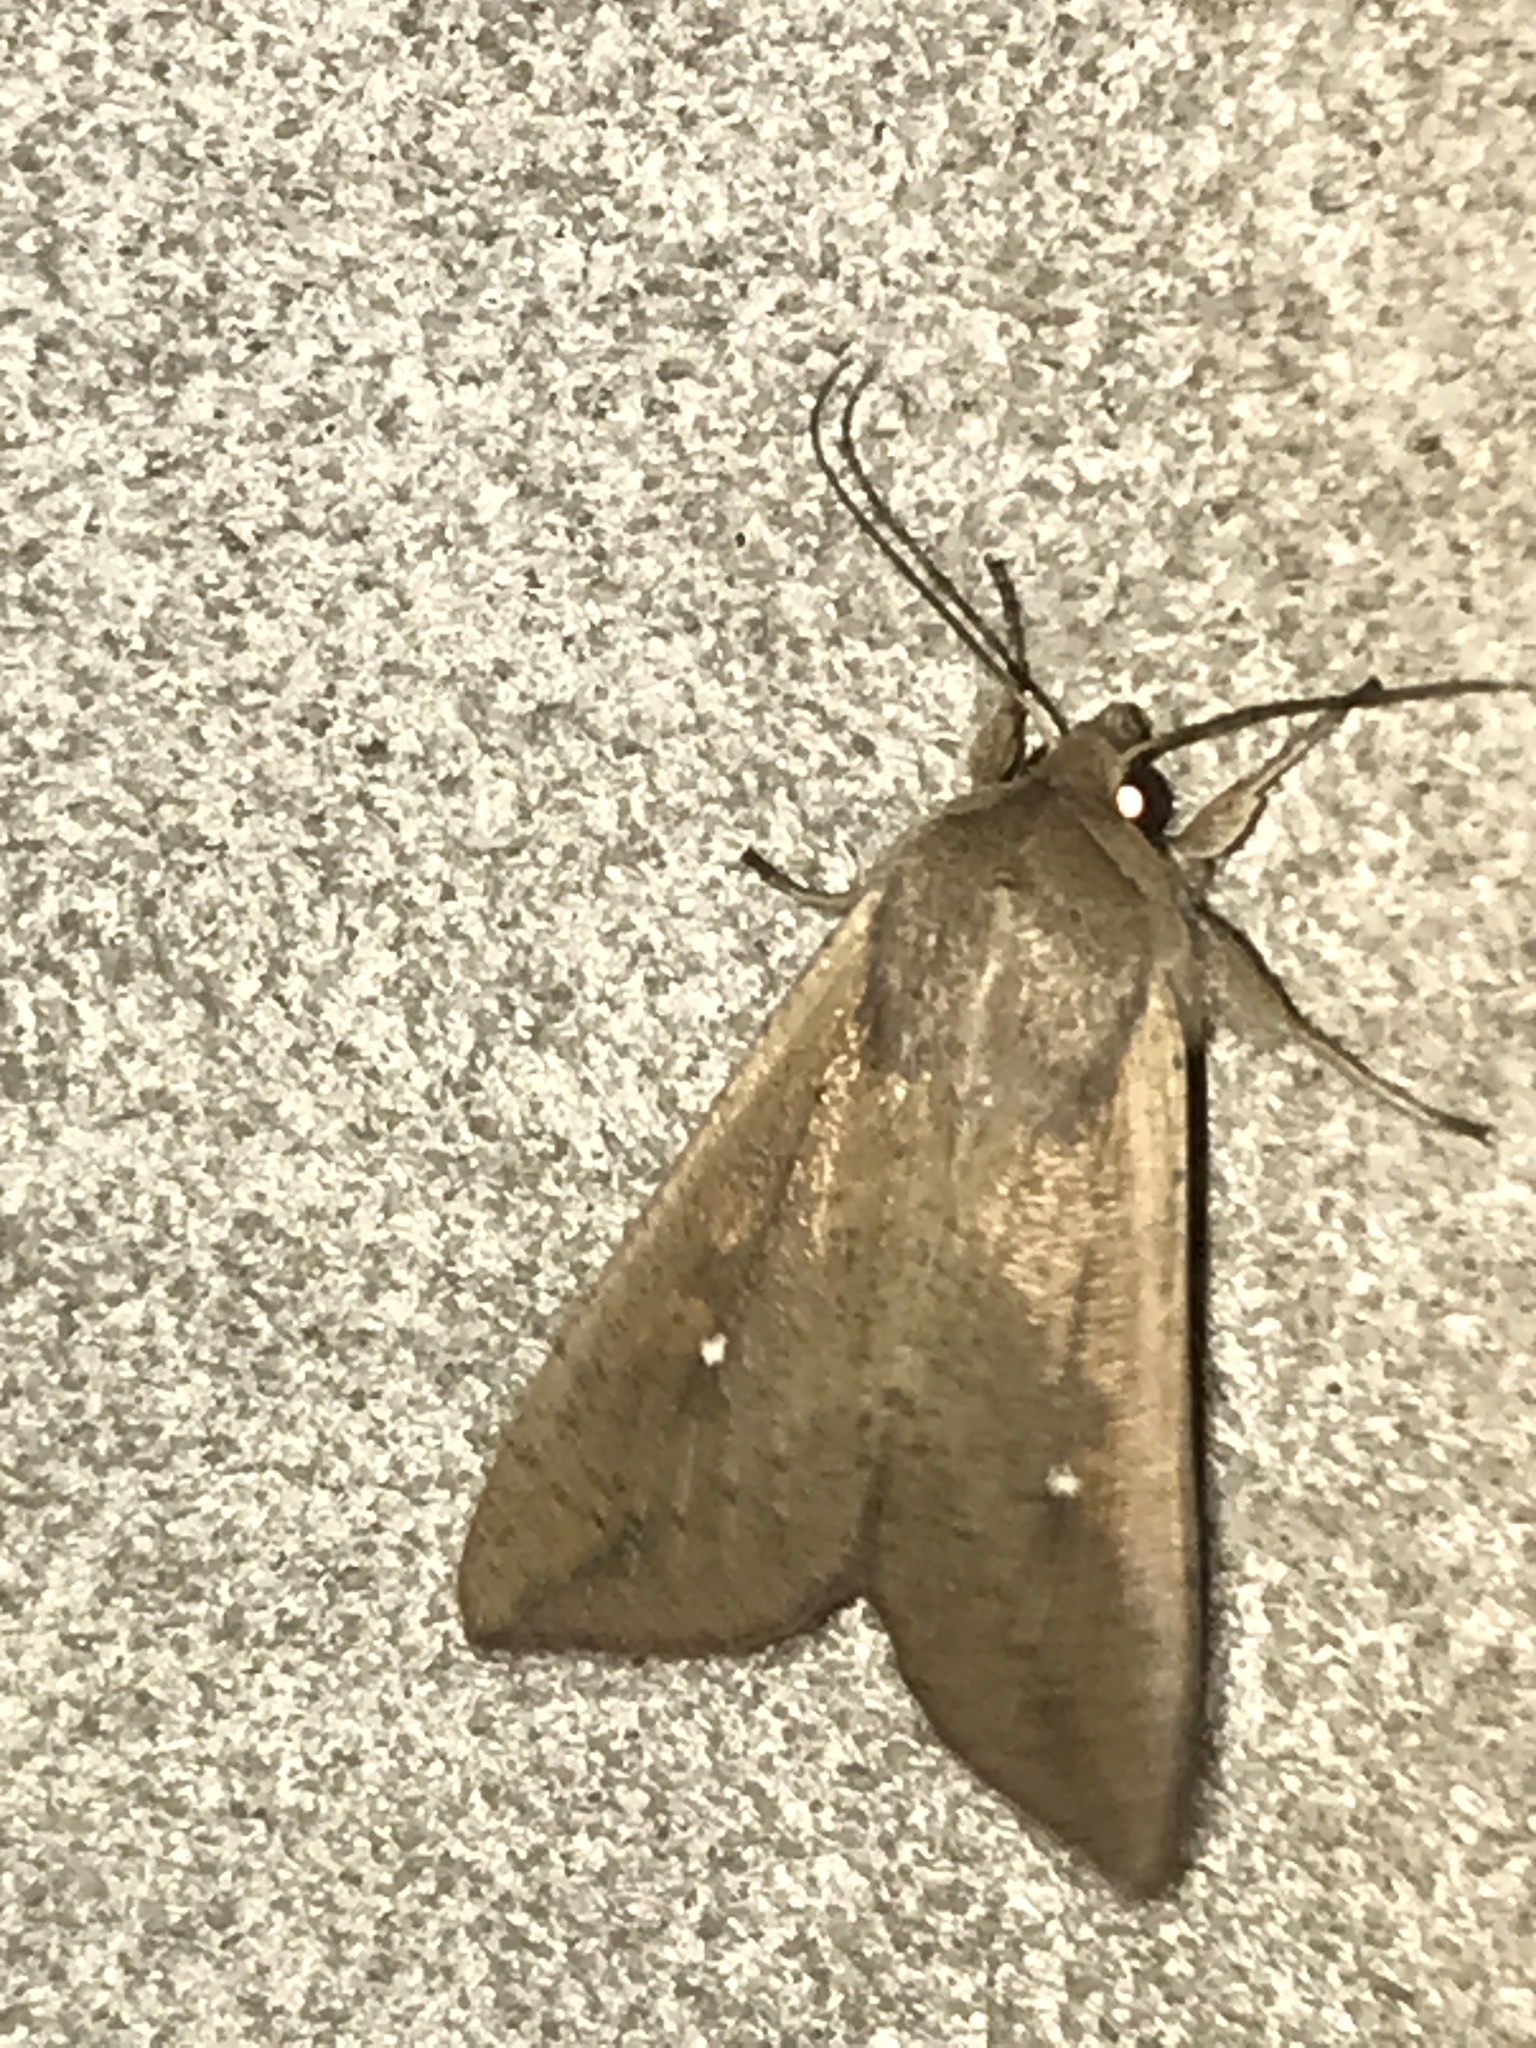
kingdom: Animalia
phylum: Arthropoda
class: Insecta
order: Lepidoptera
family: Noctuidae
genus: Mythimna
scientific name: Mythimna unipuncta
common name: White-speck
